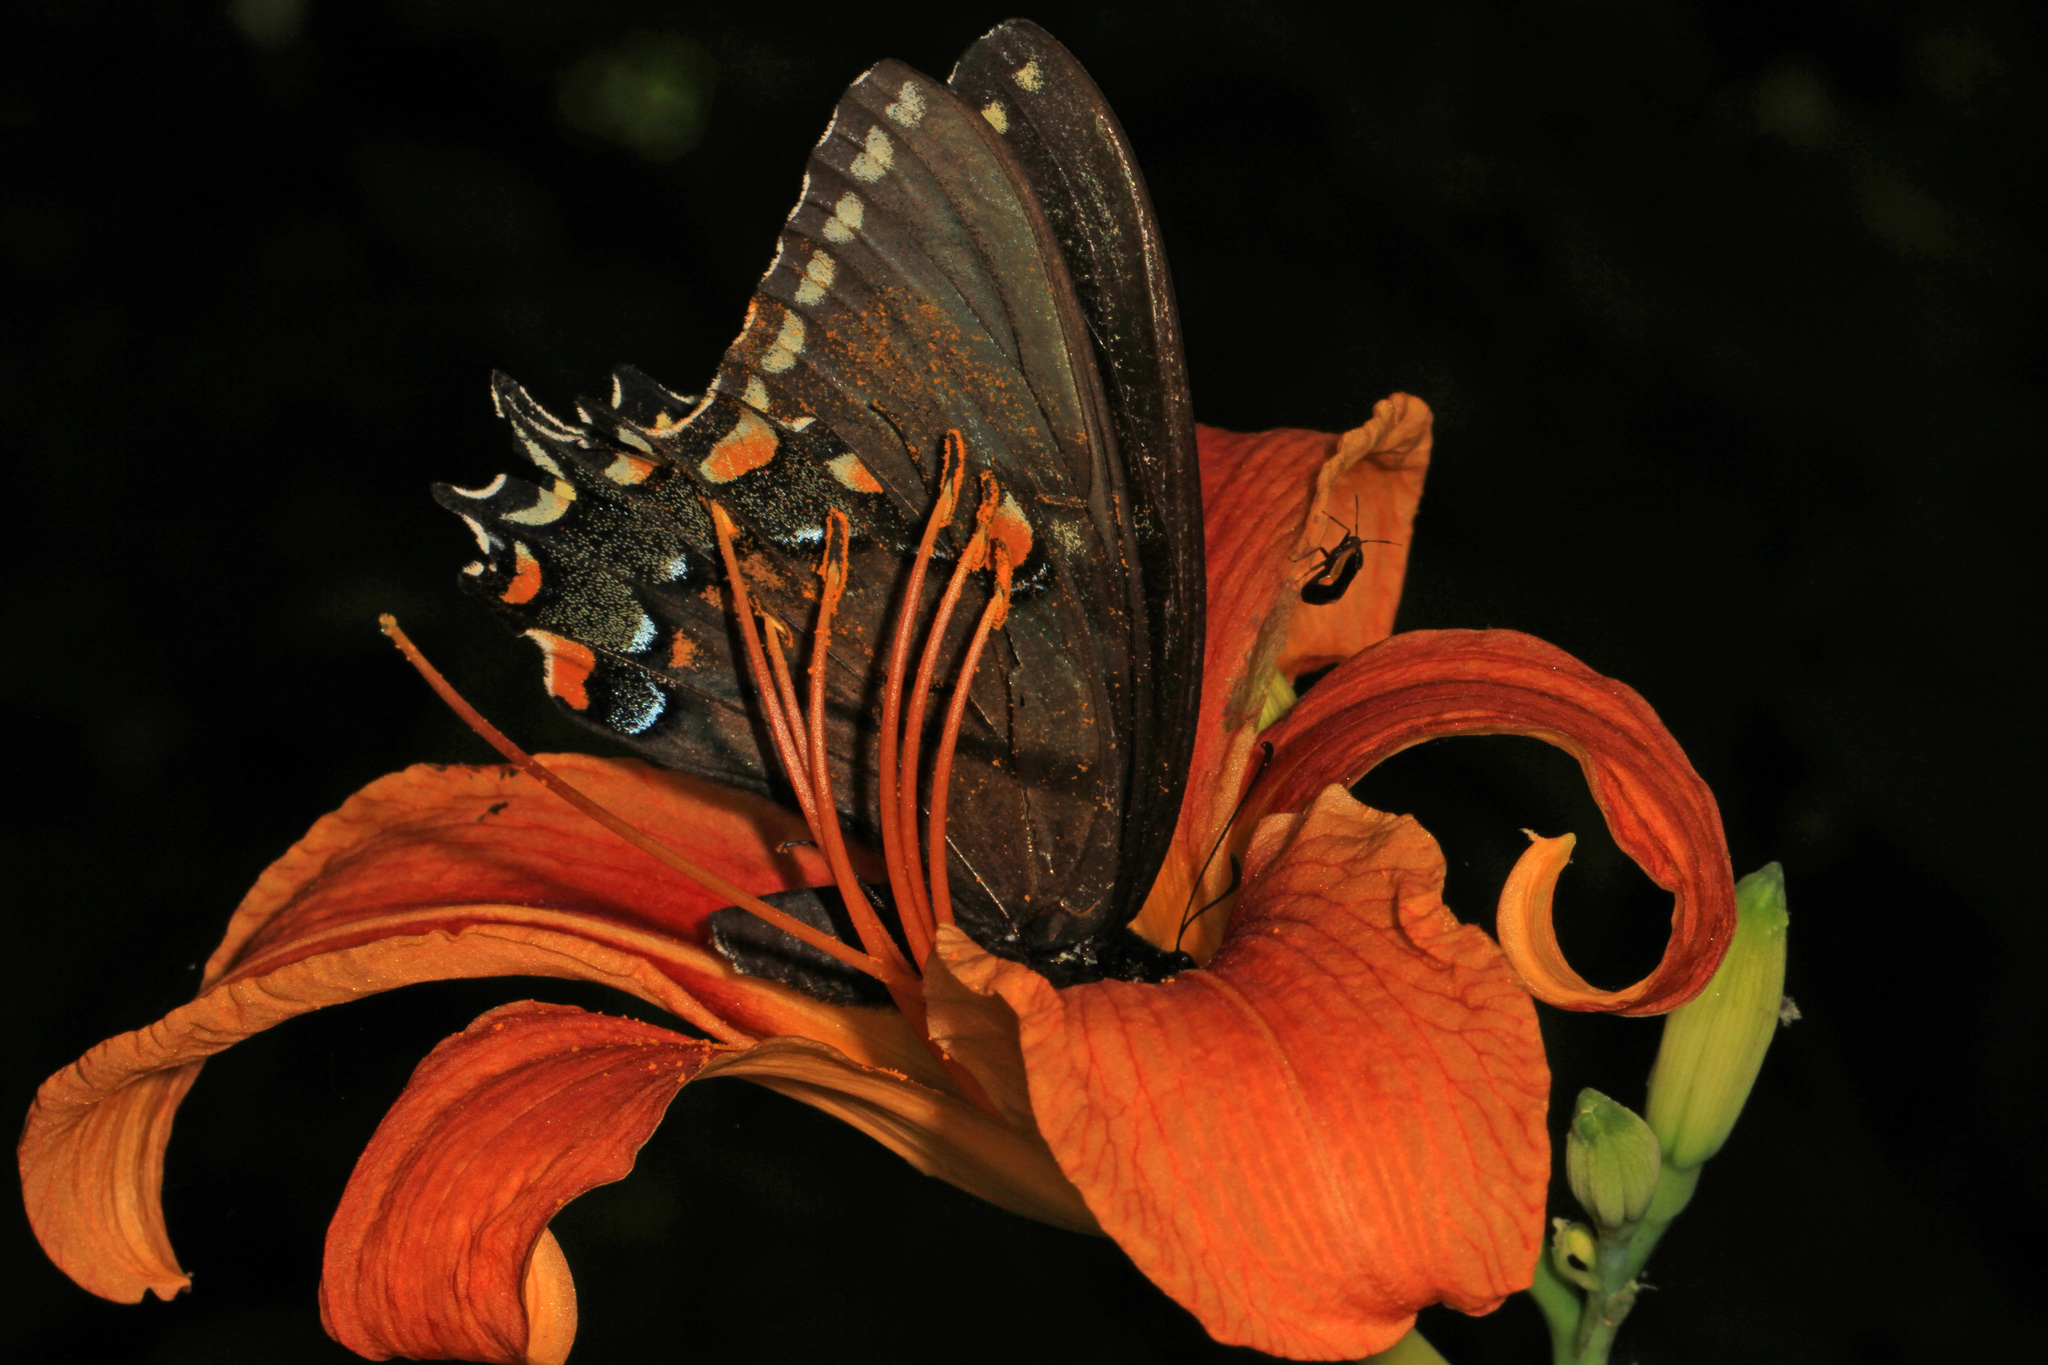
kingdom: Animalia
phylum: Arthropoda
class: Insecta
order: Lepidoptera
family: Papilionidae
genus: Papilio
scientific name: Papilio glaucus
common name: Tiger swallowtail
